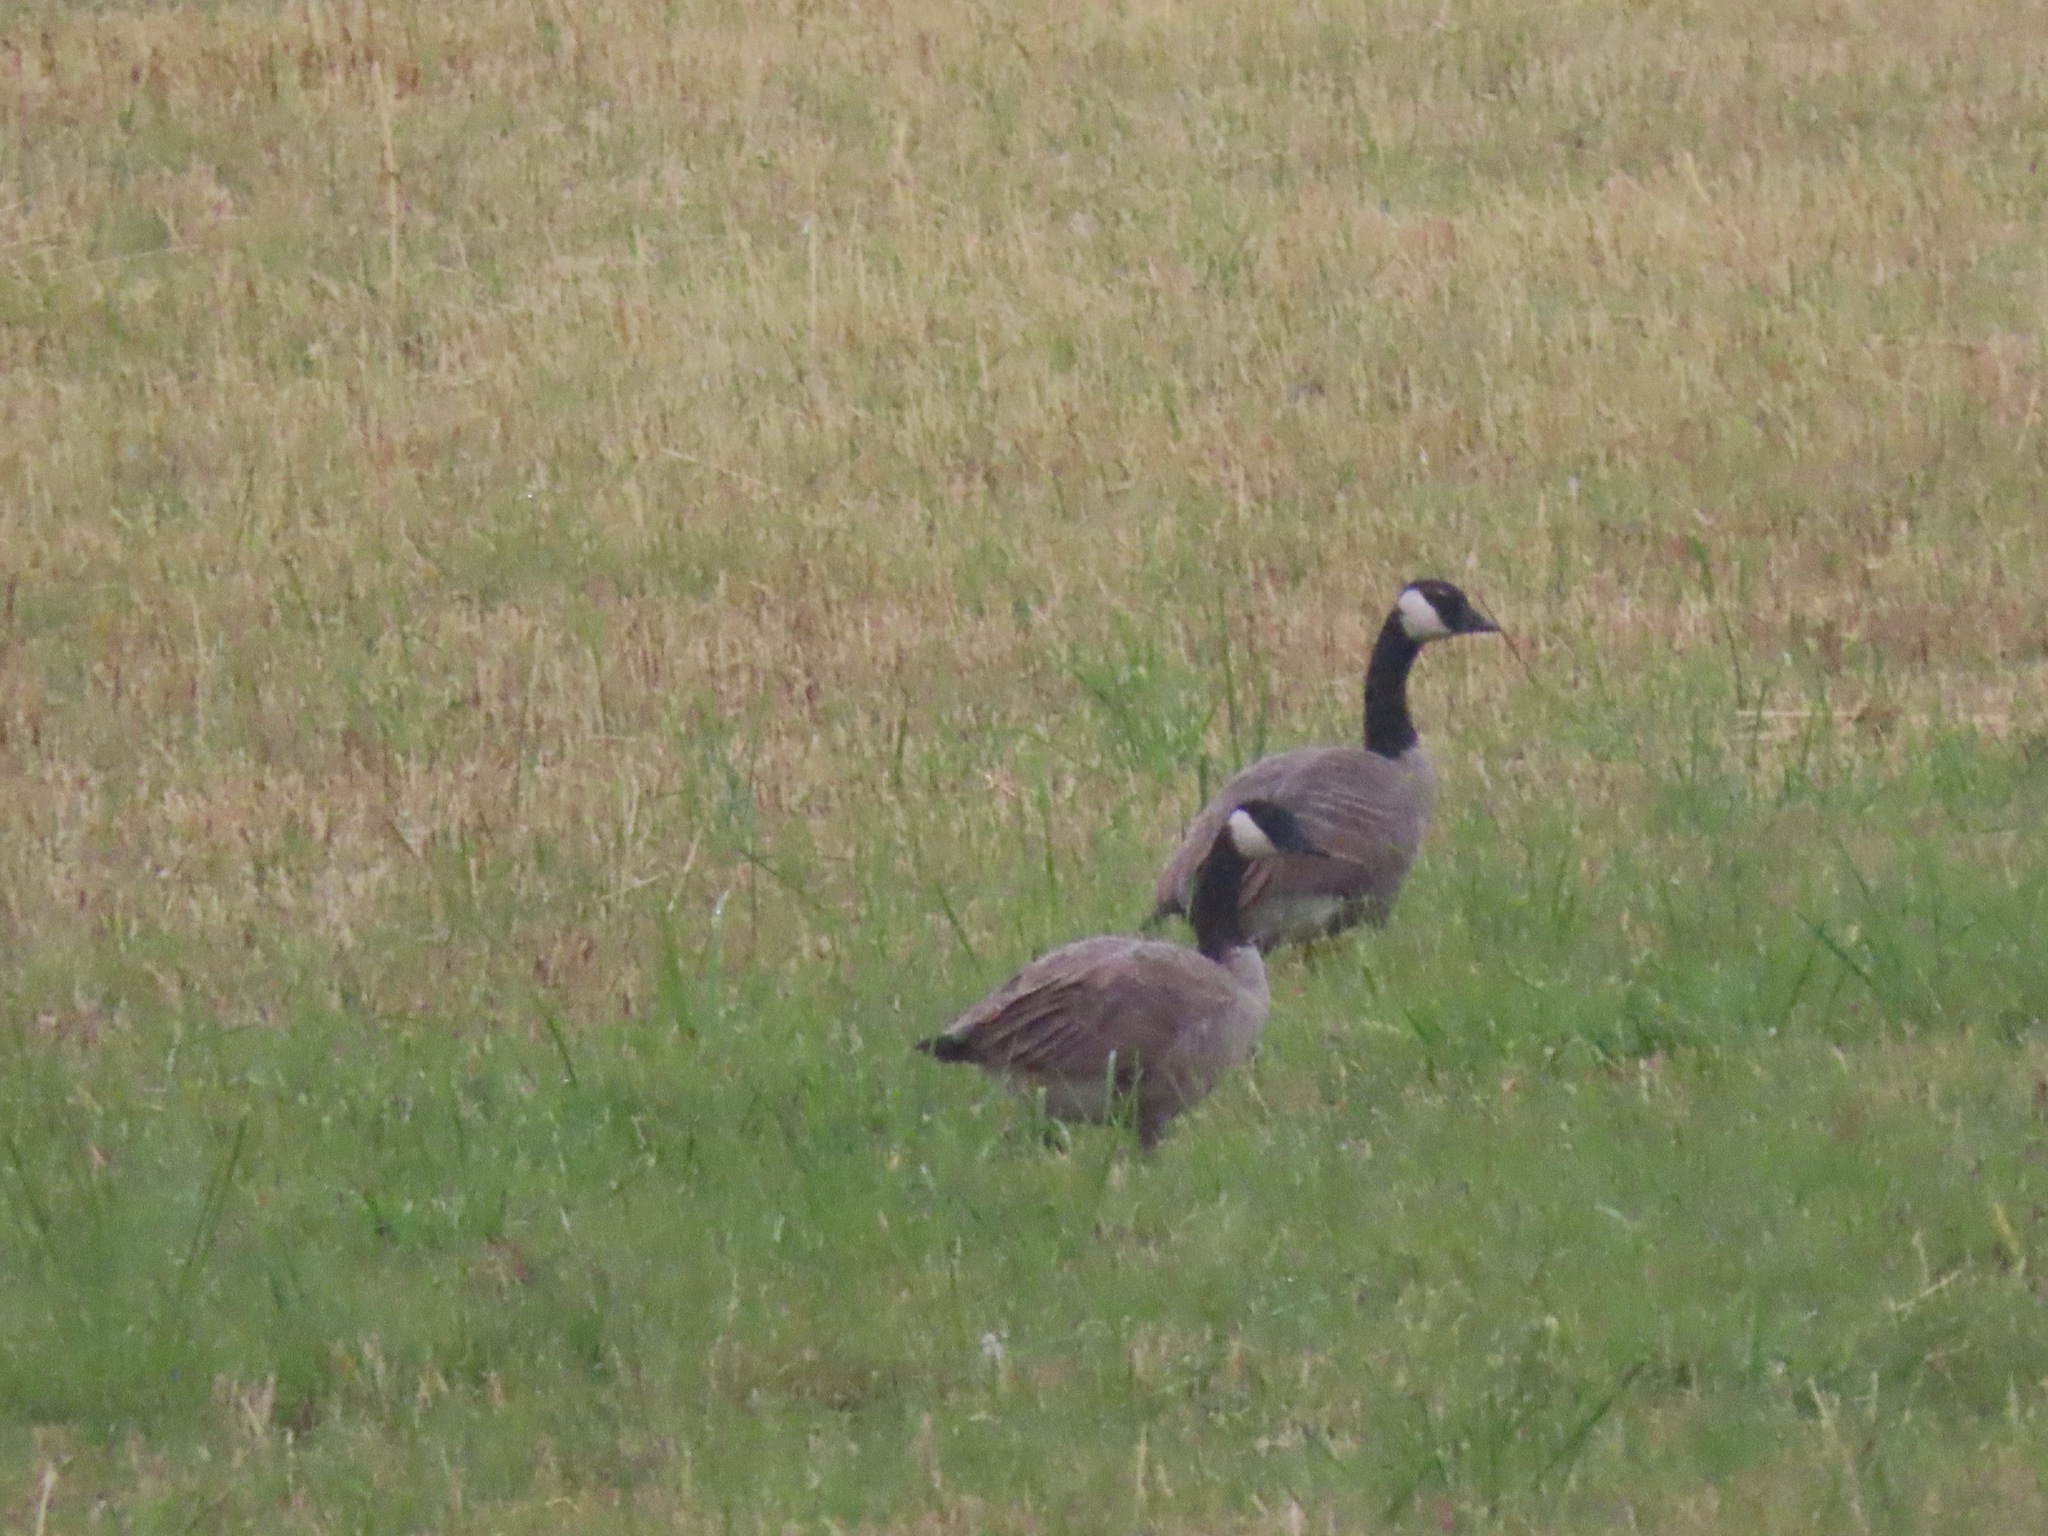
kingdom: Animalia
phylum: Chordata
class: Aves
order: Anseriformes
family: Anatidae
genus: Branta
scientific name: Branta canadensis
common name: Canada goose
